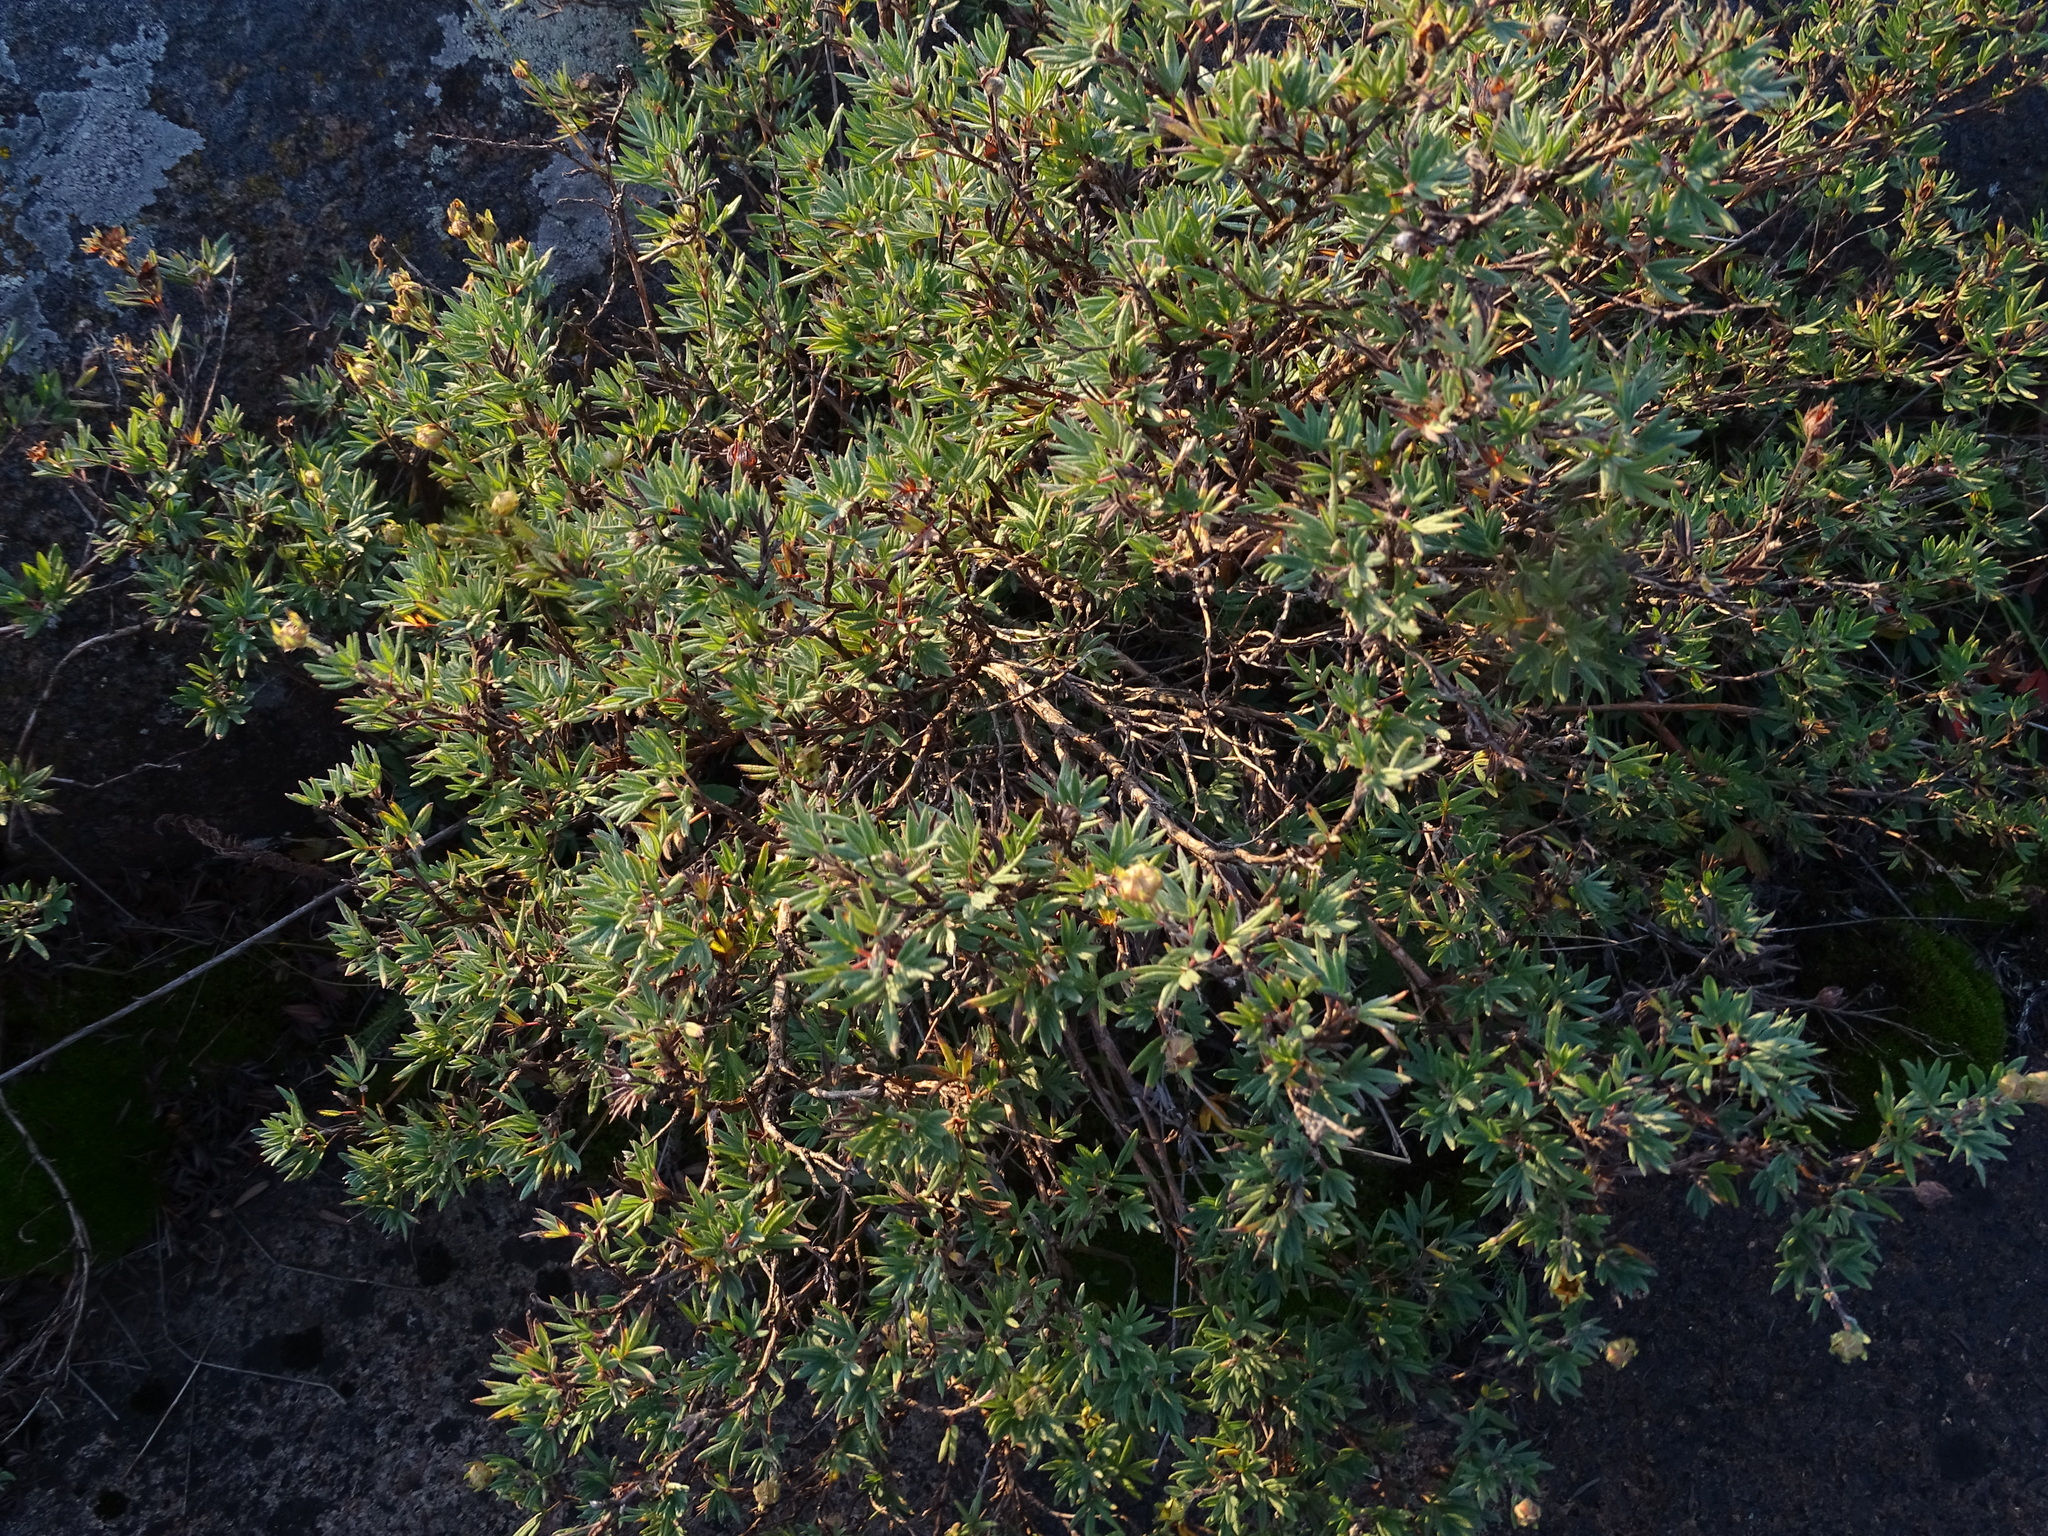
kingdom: Plantae
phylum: Tracheophyta
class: Magnoliopsida
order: Rosales
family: Rosaceae
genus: Dasiphora
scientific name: Dasiphora fruticosa
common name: Shrubby cinquefoil
